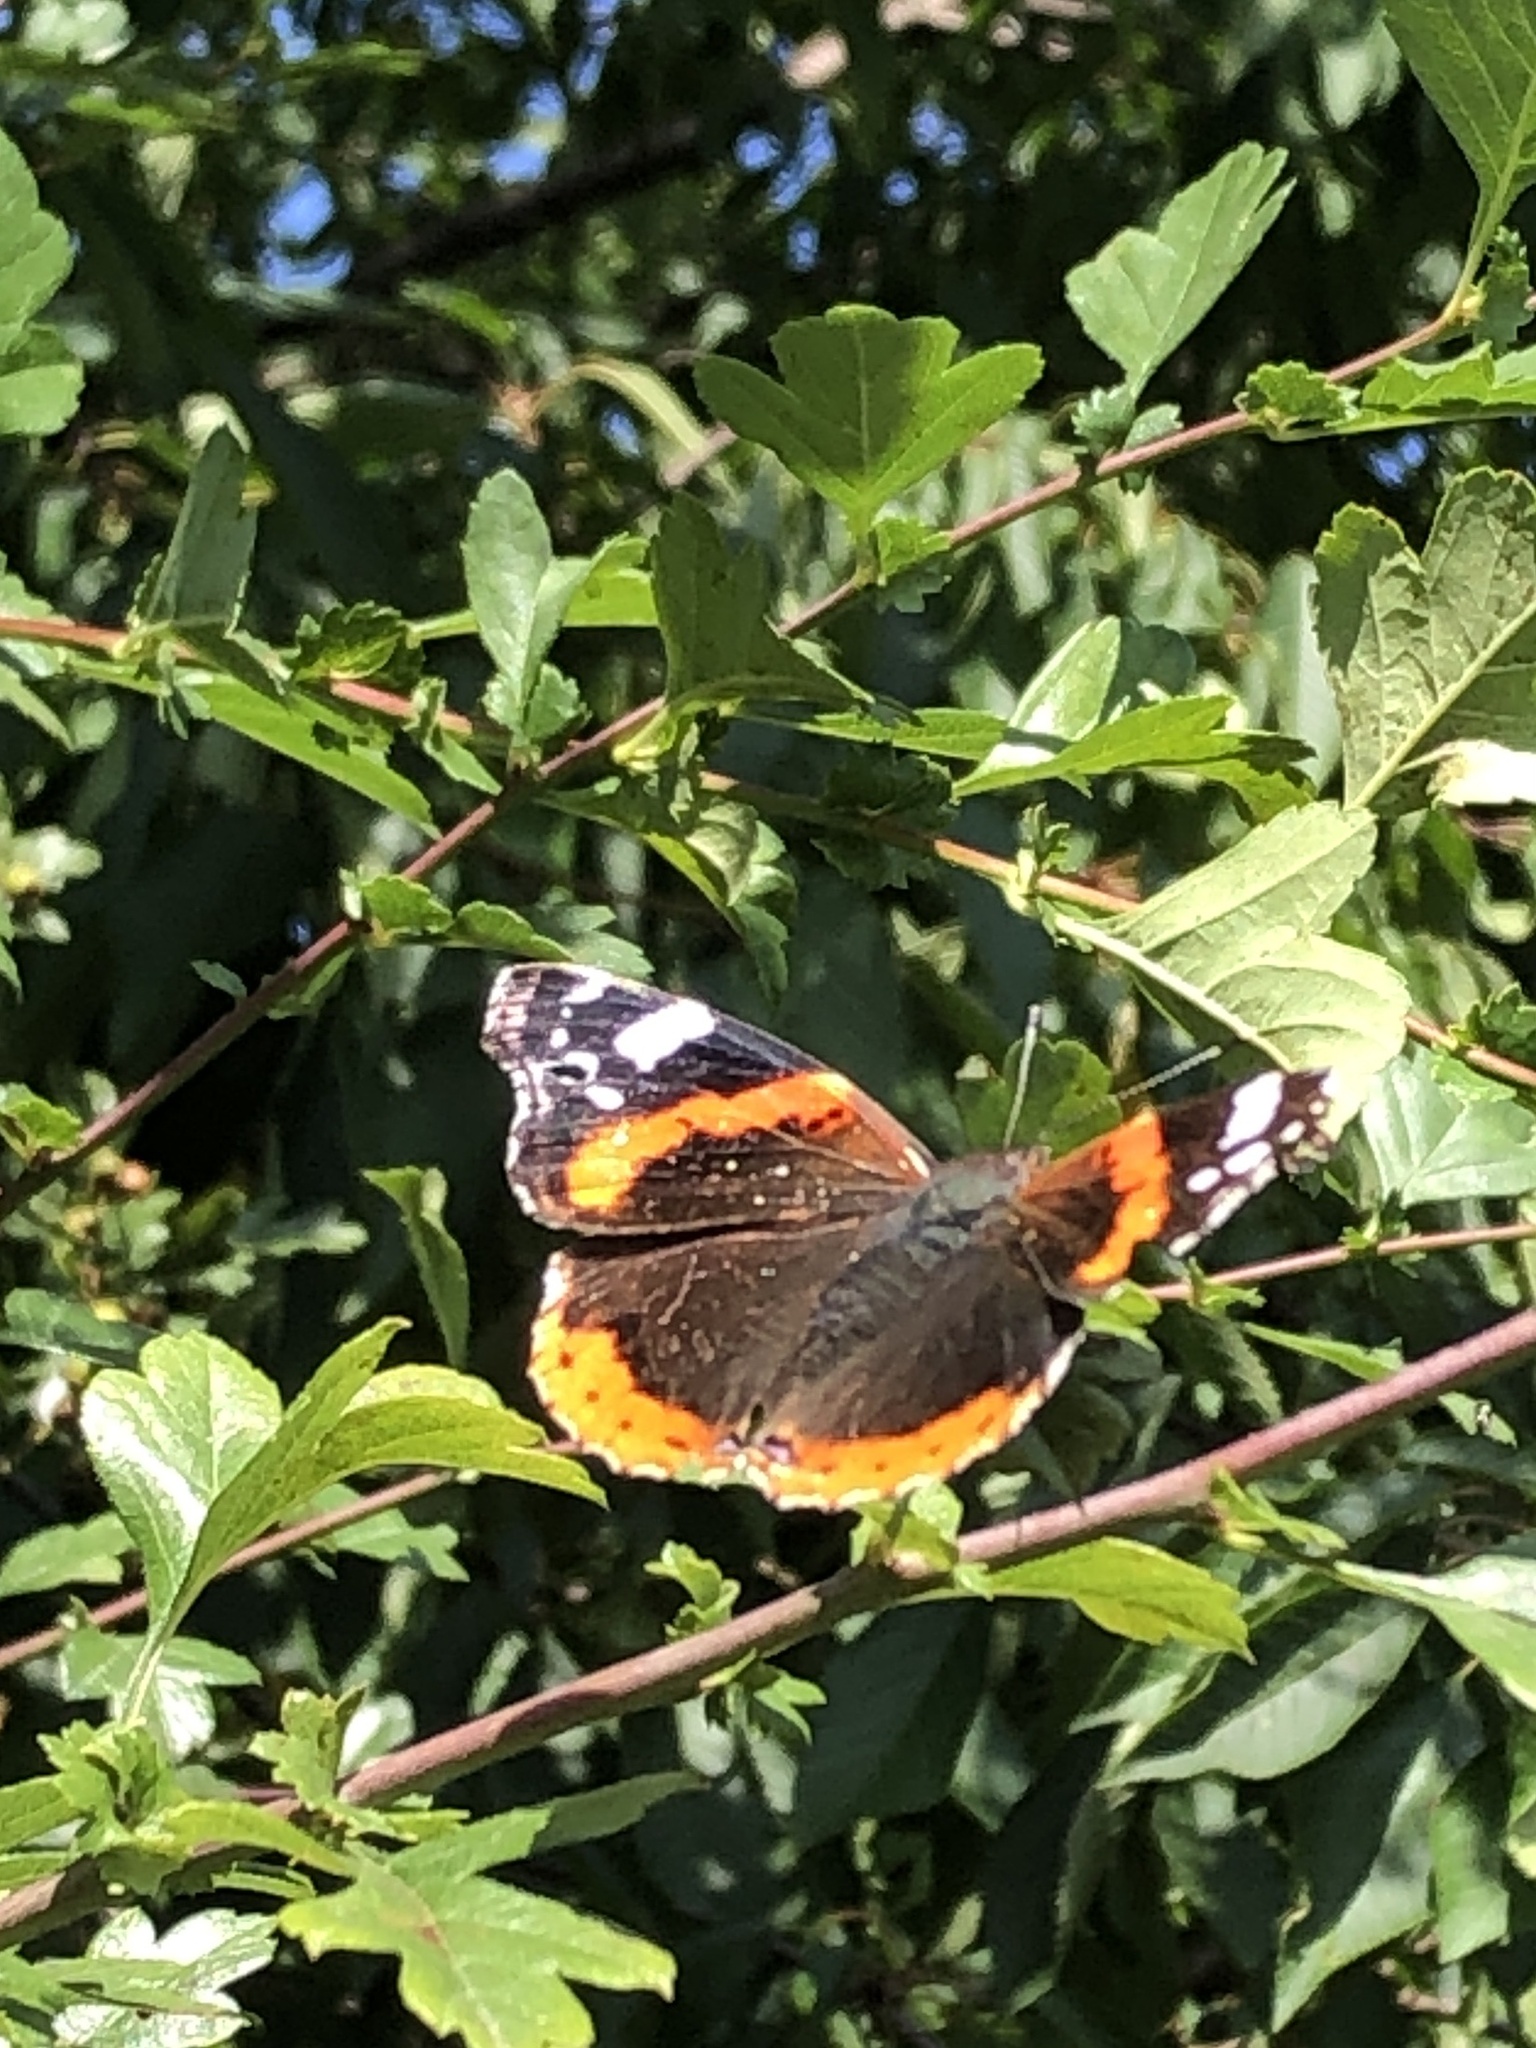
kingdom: Animalia
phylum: Arthropoda
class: Insecta
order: Lepidoptera
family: Nymphalidae
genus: Vanessa
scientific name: Vanessa atalanta
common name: Red admiral
